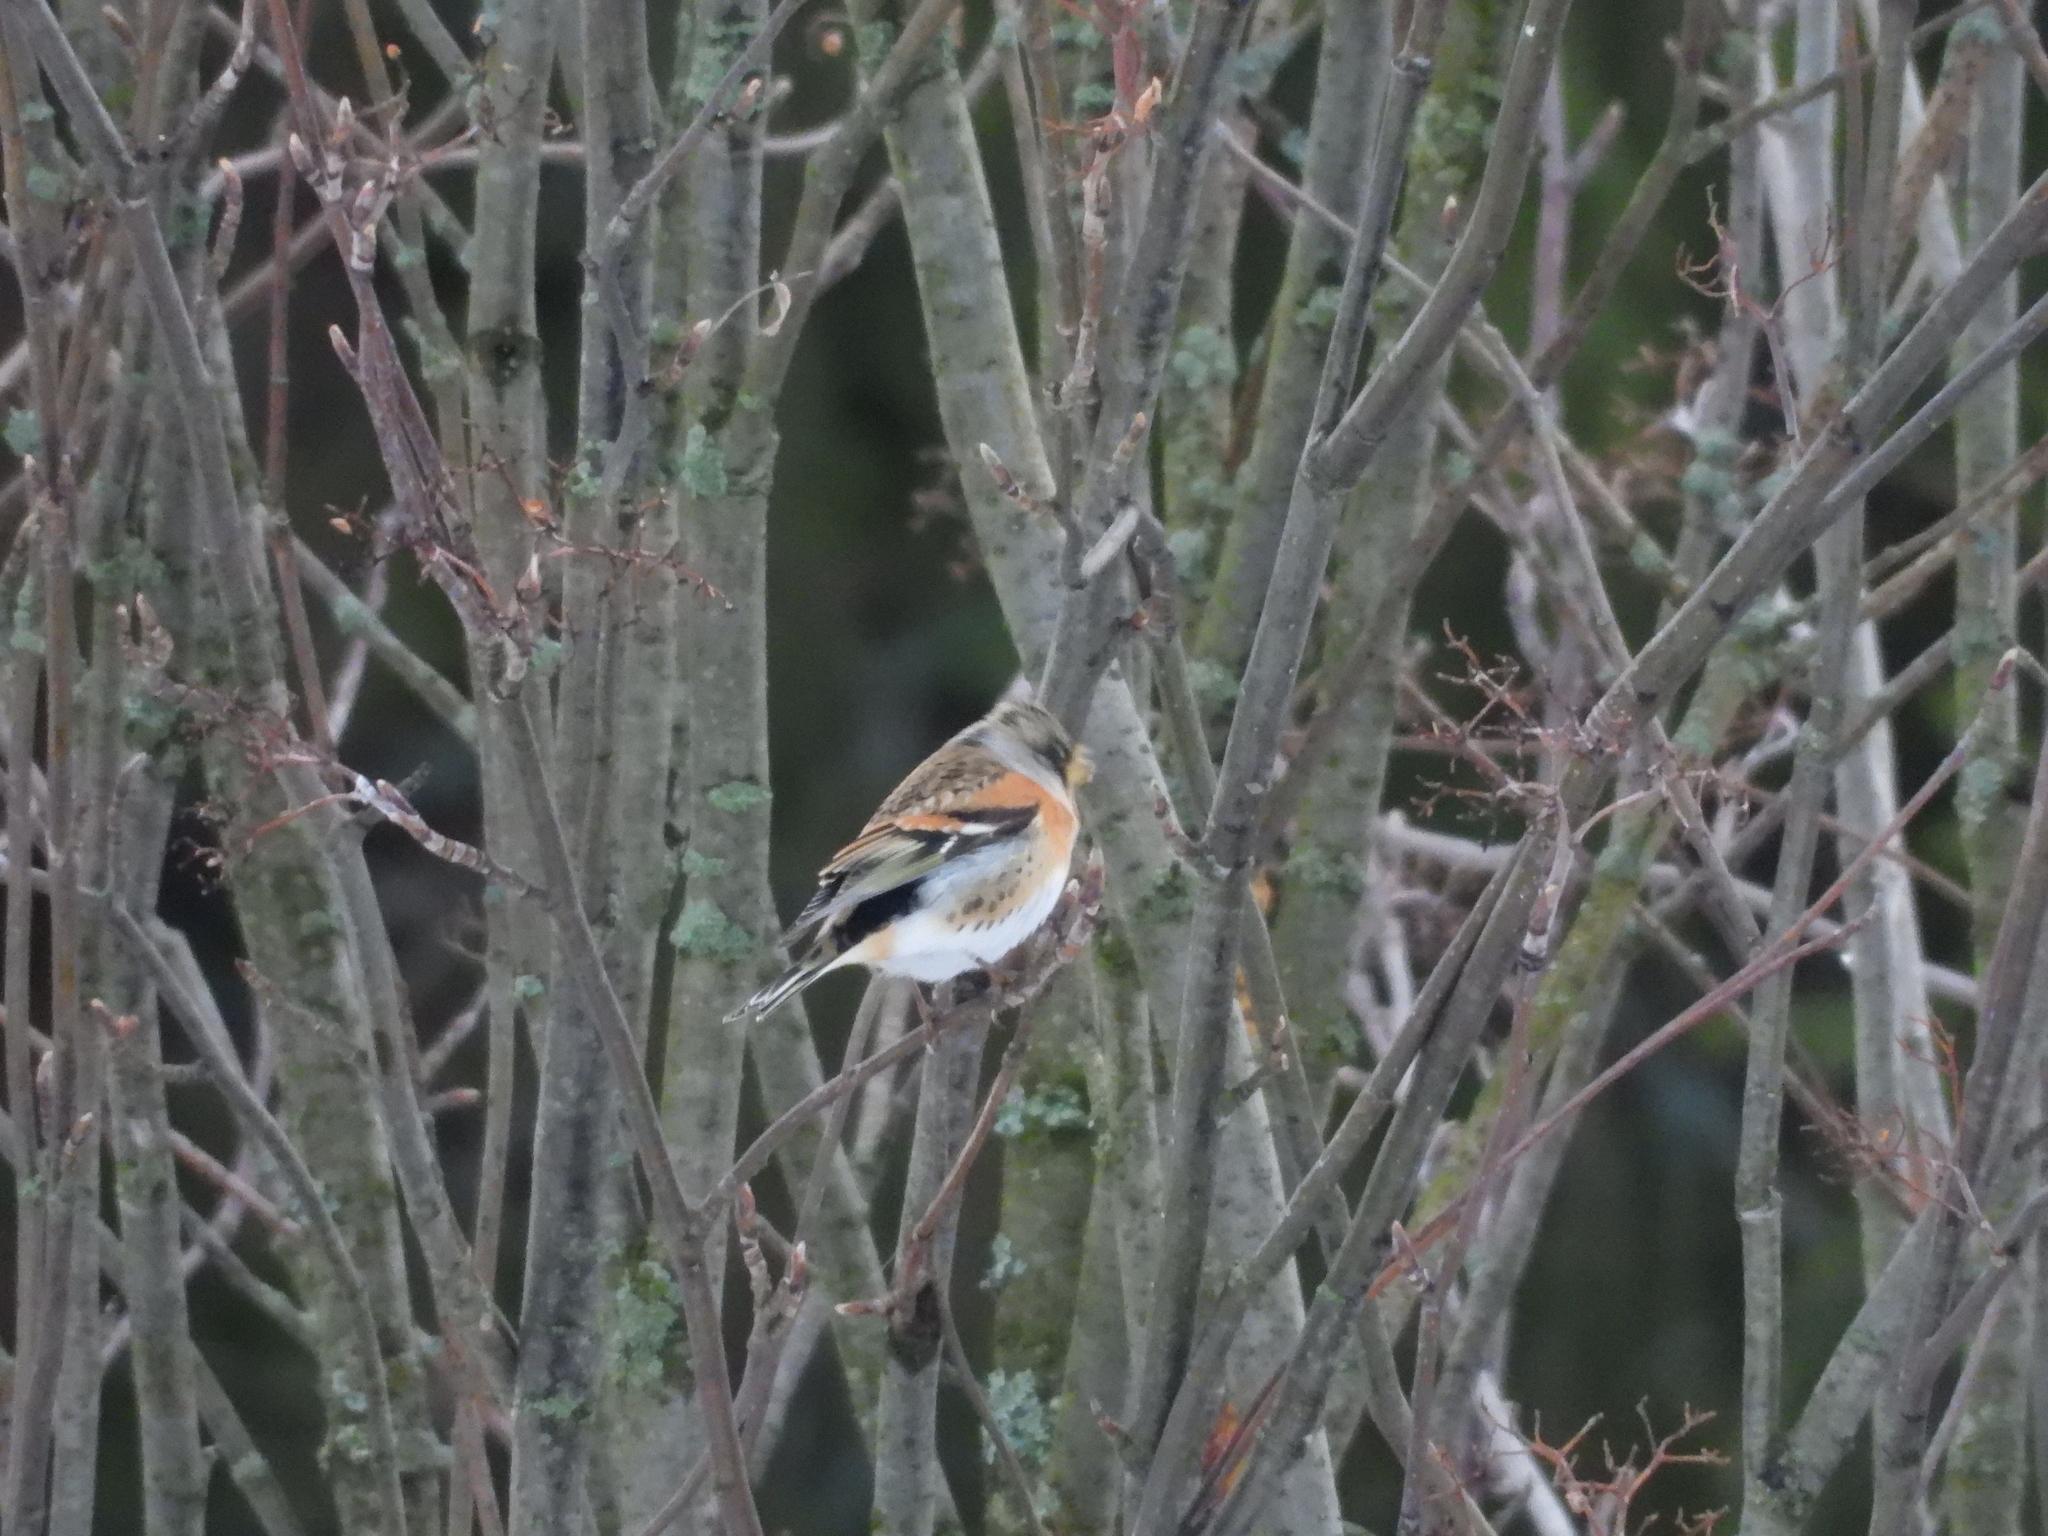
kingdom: Animalia
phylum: Chordata
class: Aves
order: Passeriformes
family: Fringillidae
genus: Fringilla
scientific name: Fringilla montifringilla
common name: Brambling
